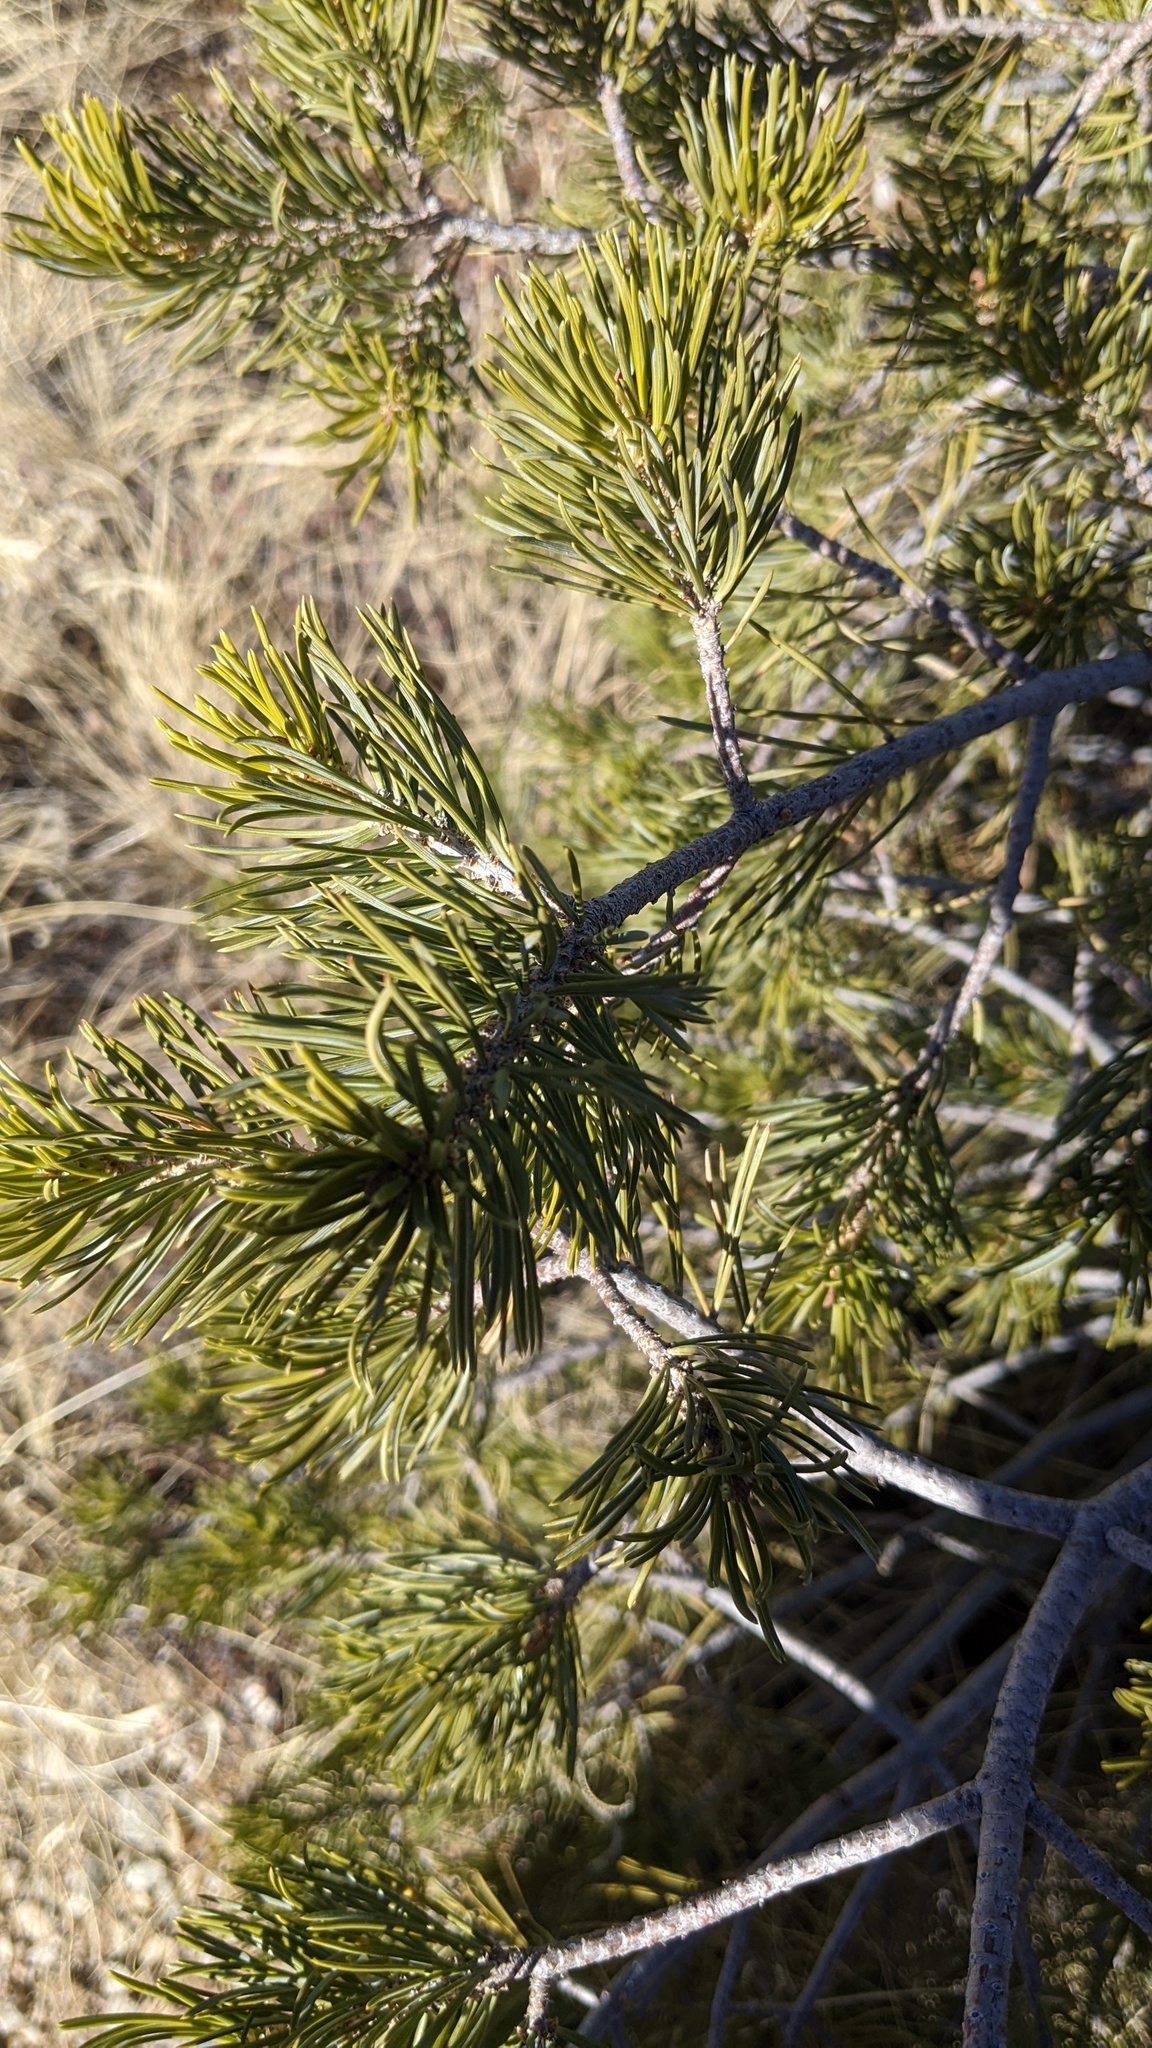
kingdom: Plantae
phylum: Tracheophyta
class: Pinopsida
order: Pinales
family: Pinaceae
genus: Pinus
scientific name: Pinus edulis
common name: Colorado pinyon
